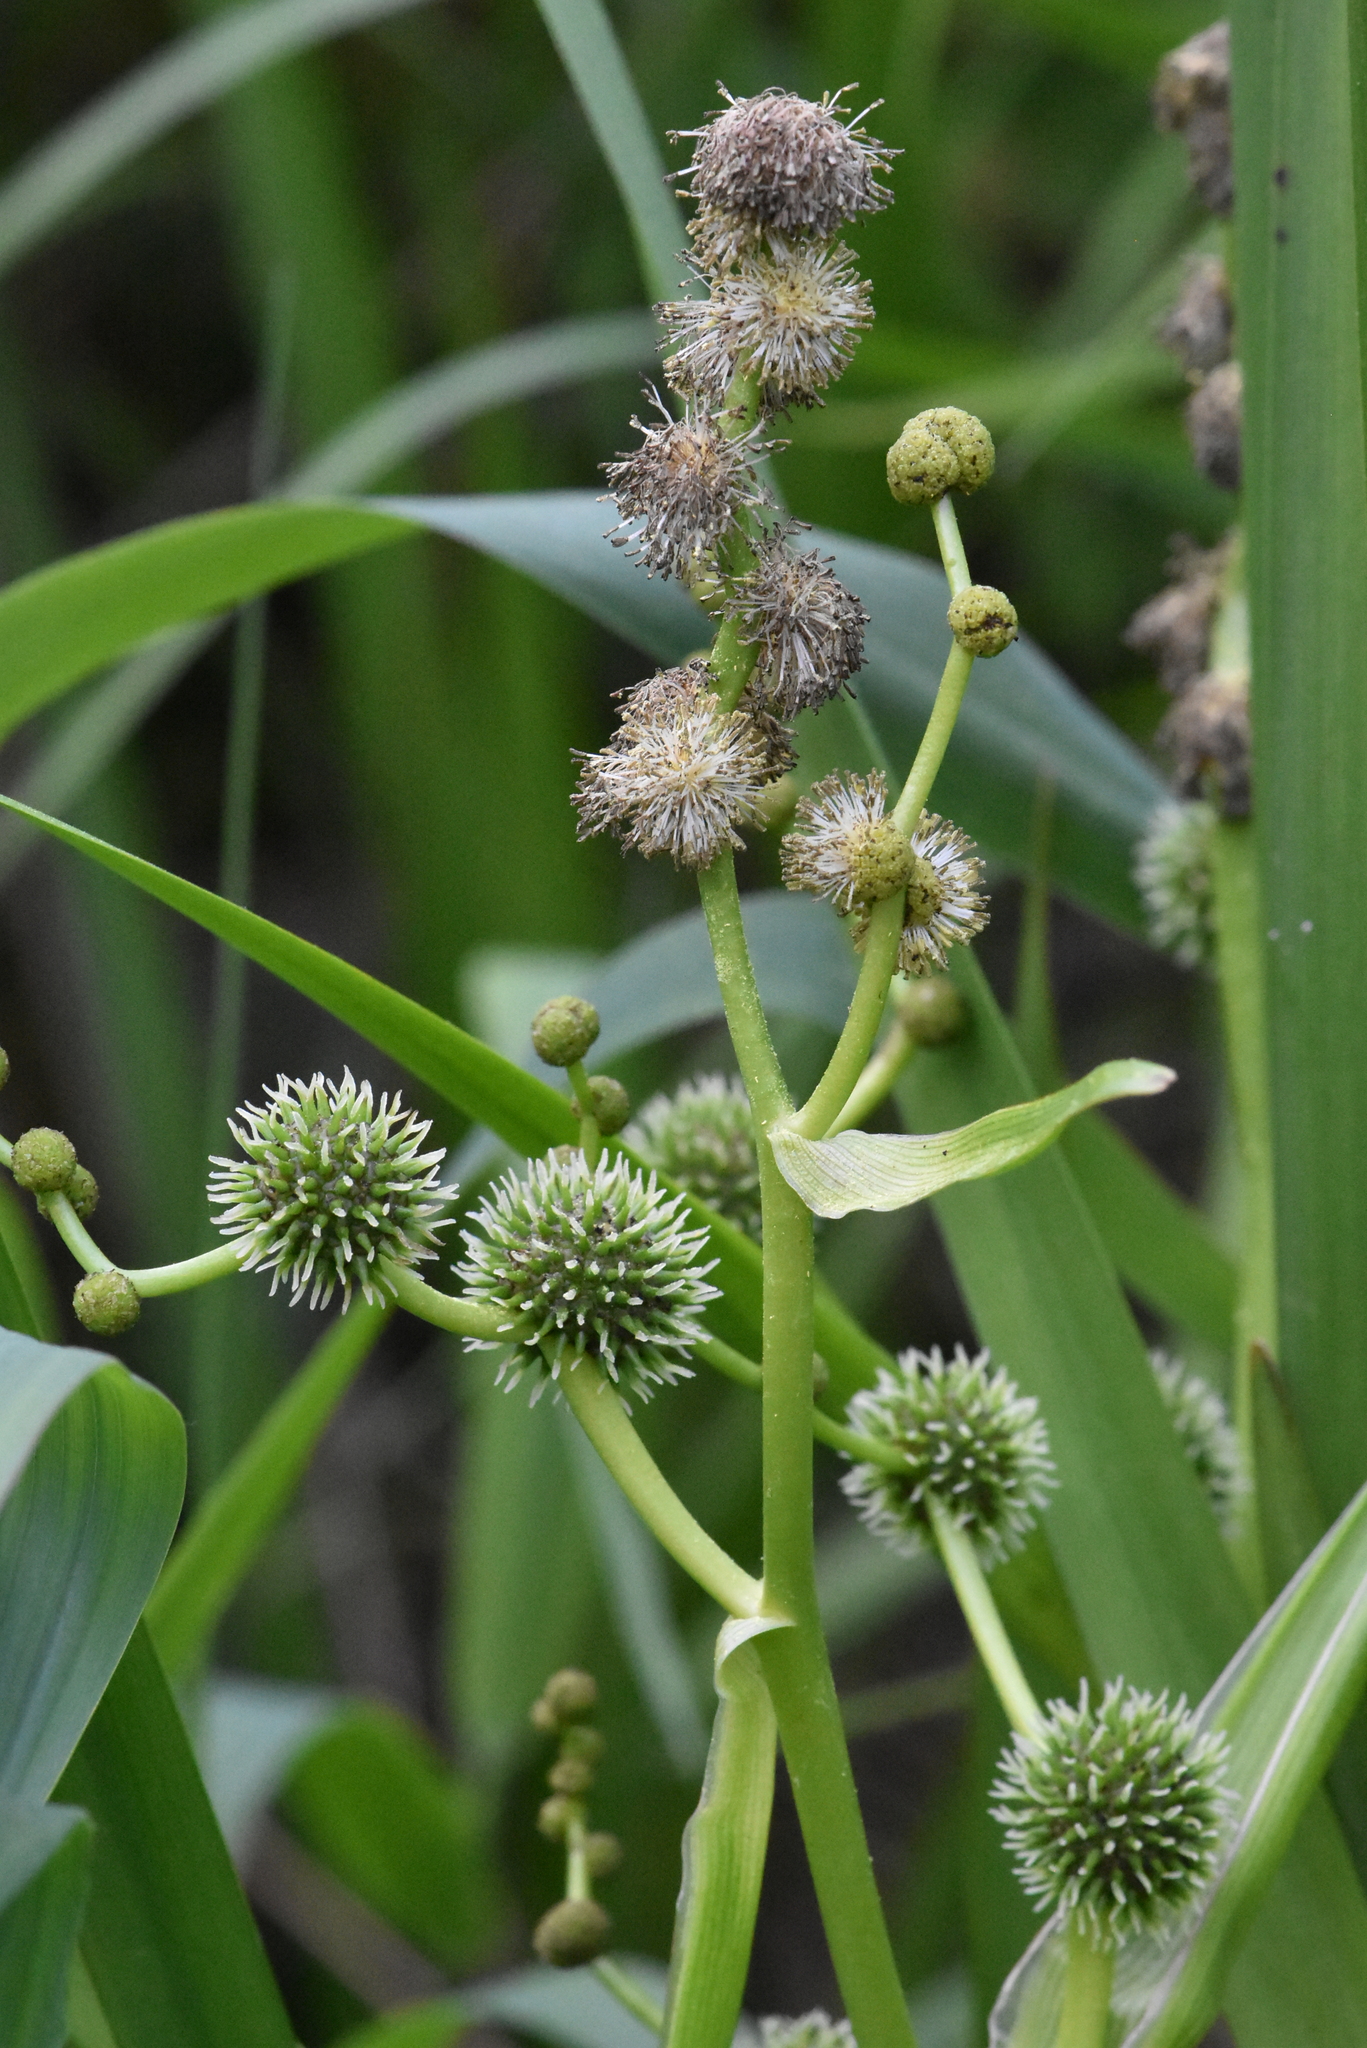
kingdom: Plantae
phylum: Tracheophyta
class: Liliopsida
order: Poales
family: Typhaceae
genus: Sparganium
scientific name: Sparganium erectum
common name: Branched bur-reed
